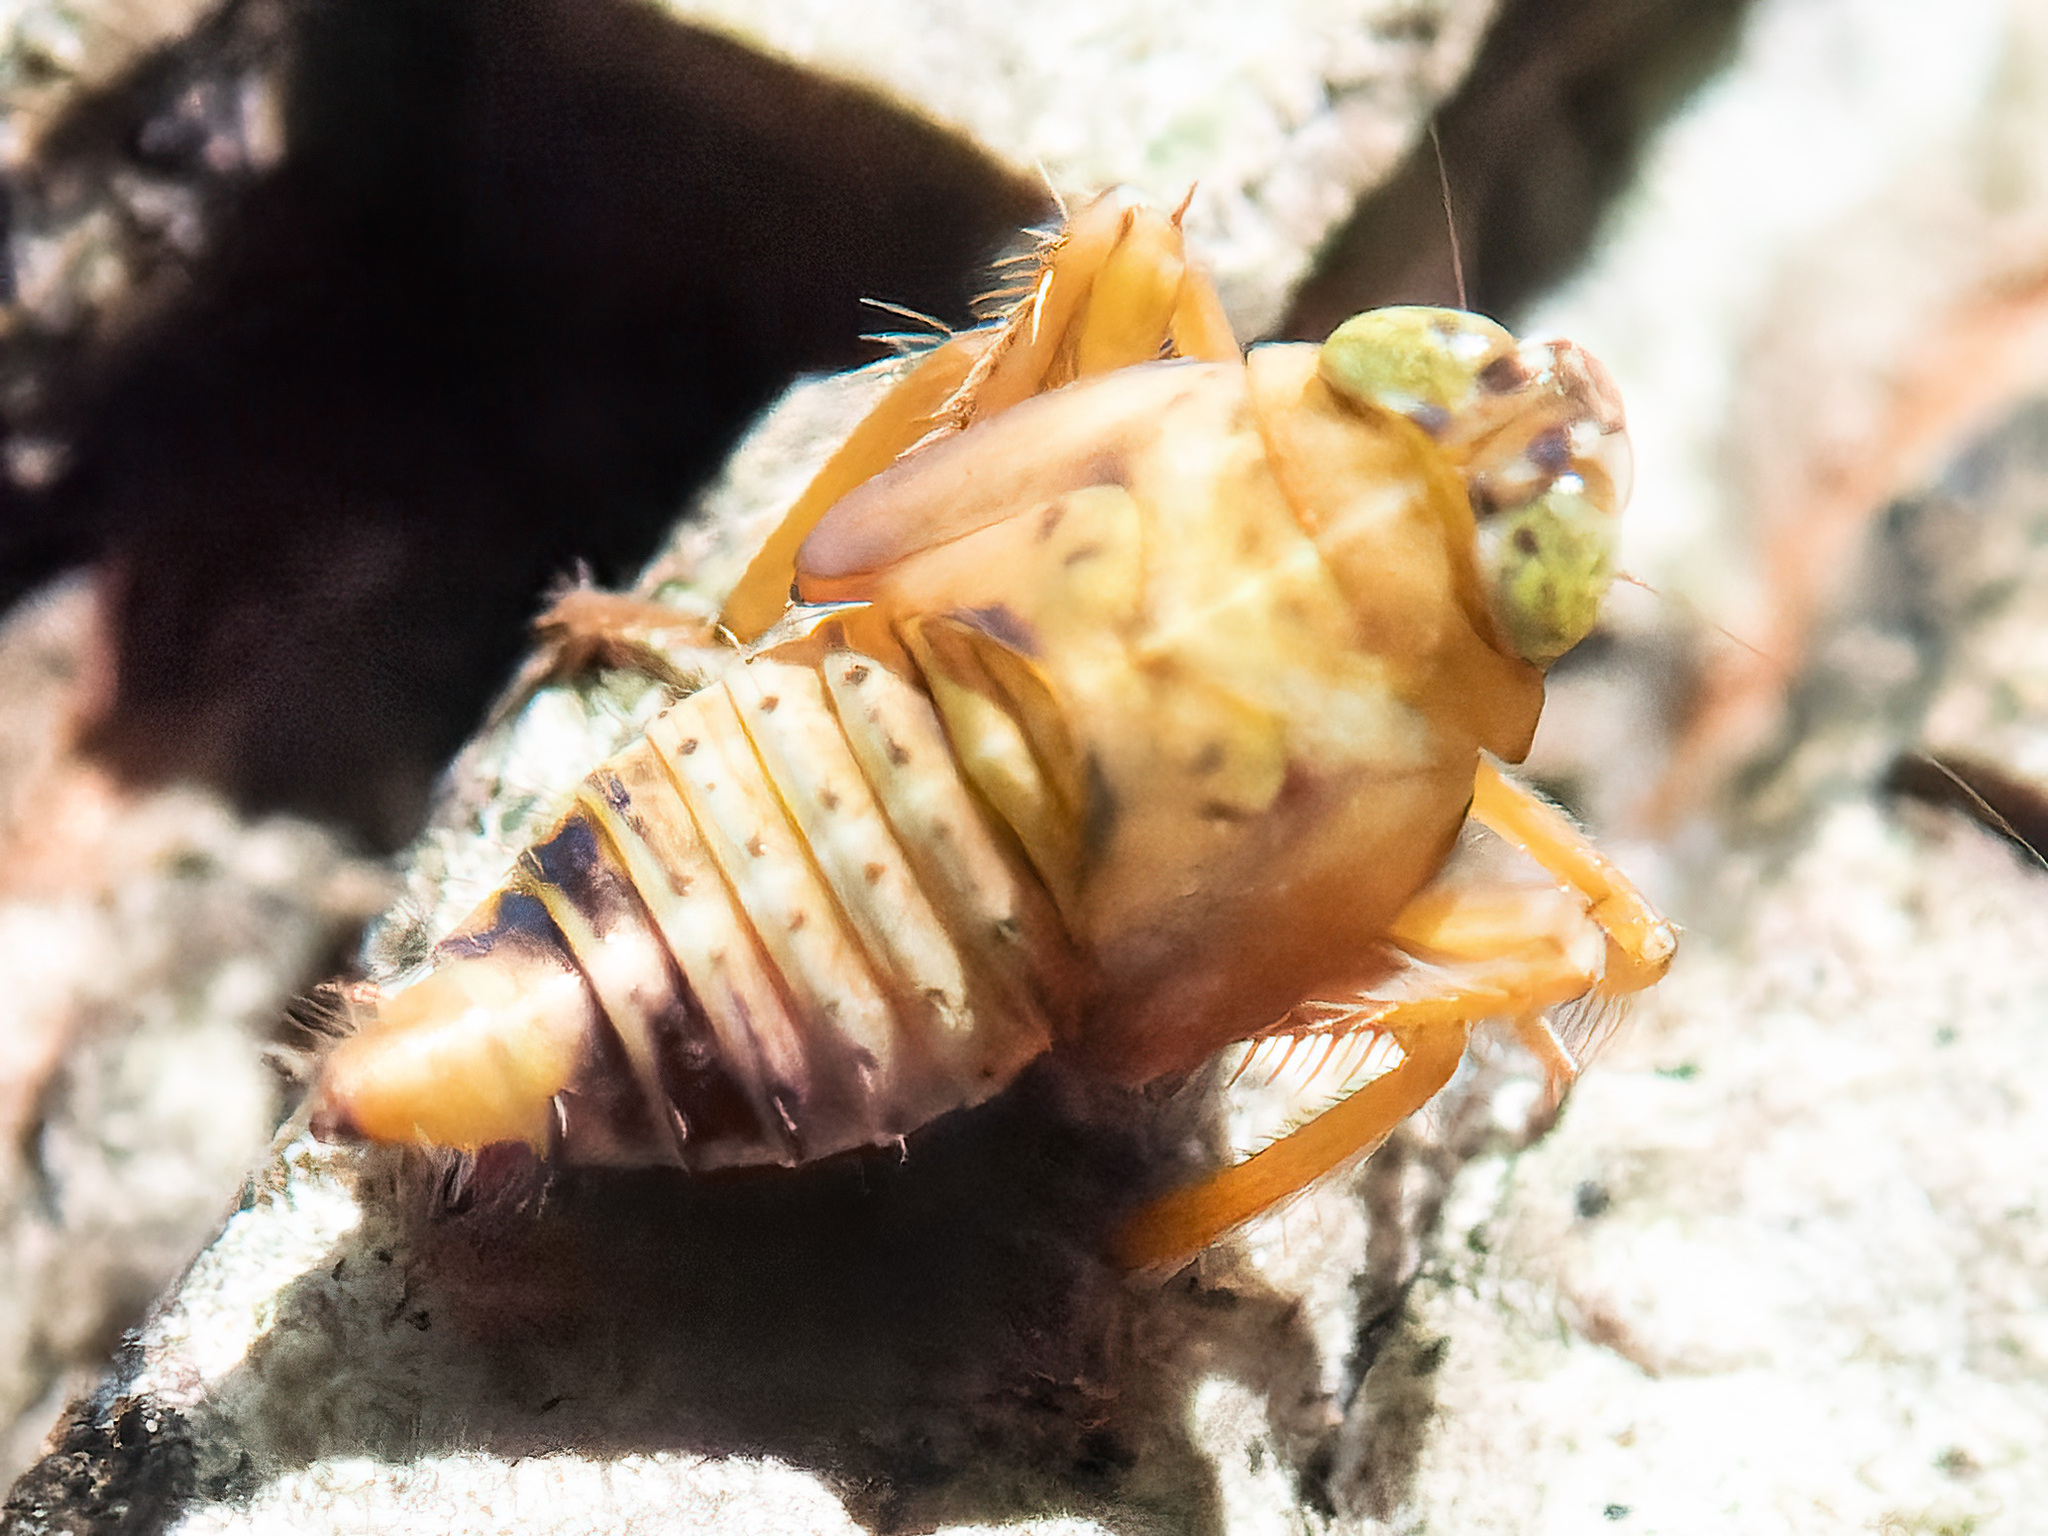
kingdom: Animalia
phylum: Arthropoda
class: Insecta
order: Hemiptera
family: Cicadellidae
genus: Jikradia
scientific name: Jikradia olitoria
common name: Coppery leafhopper
